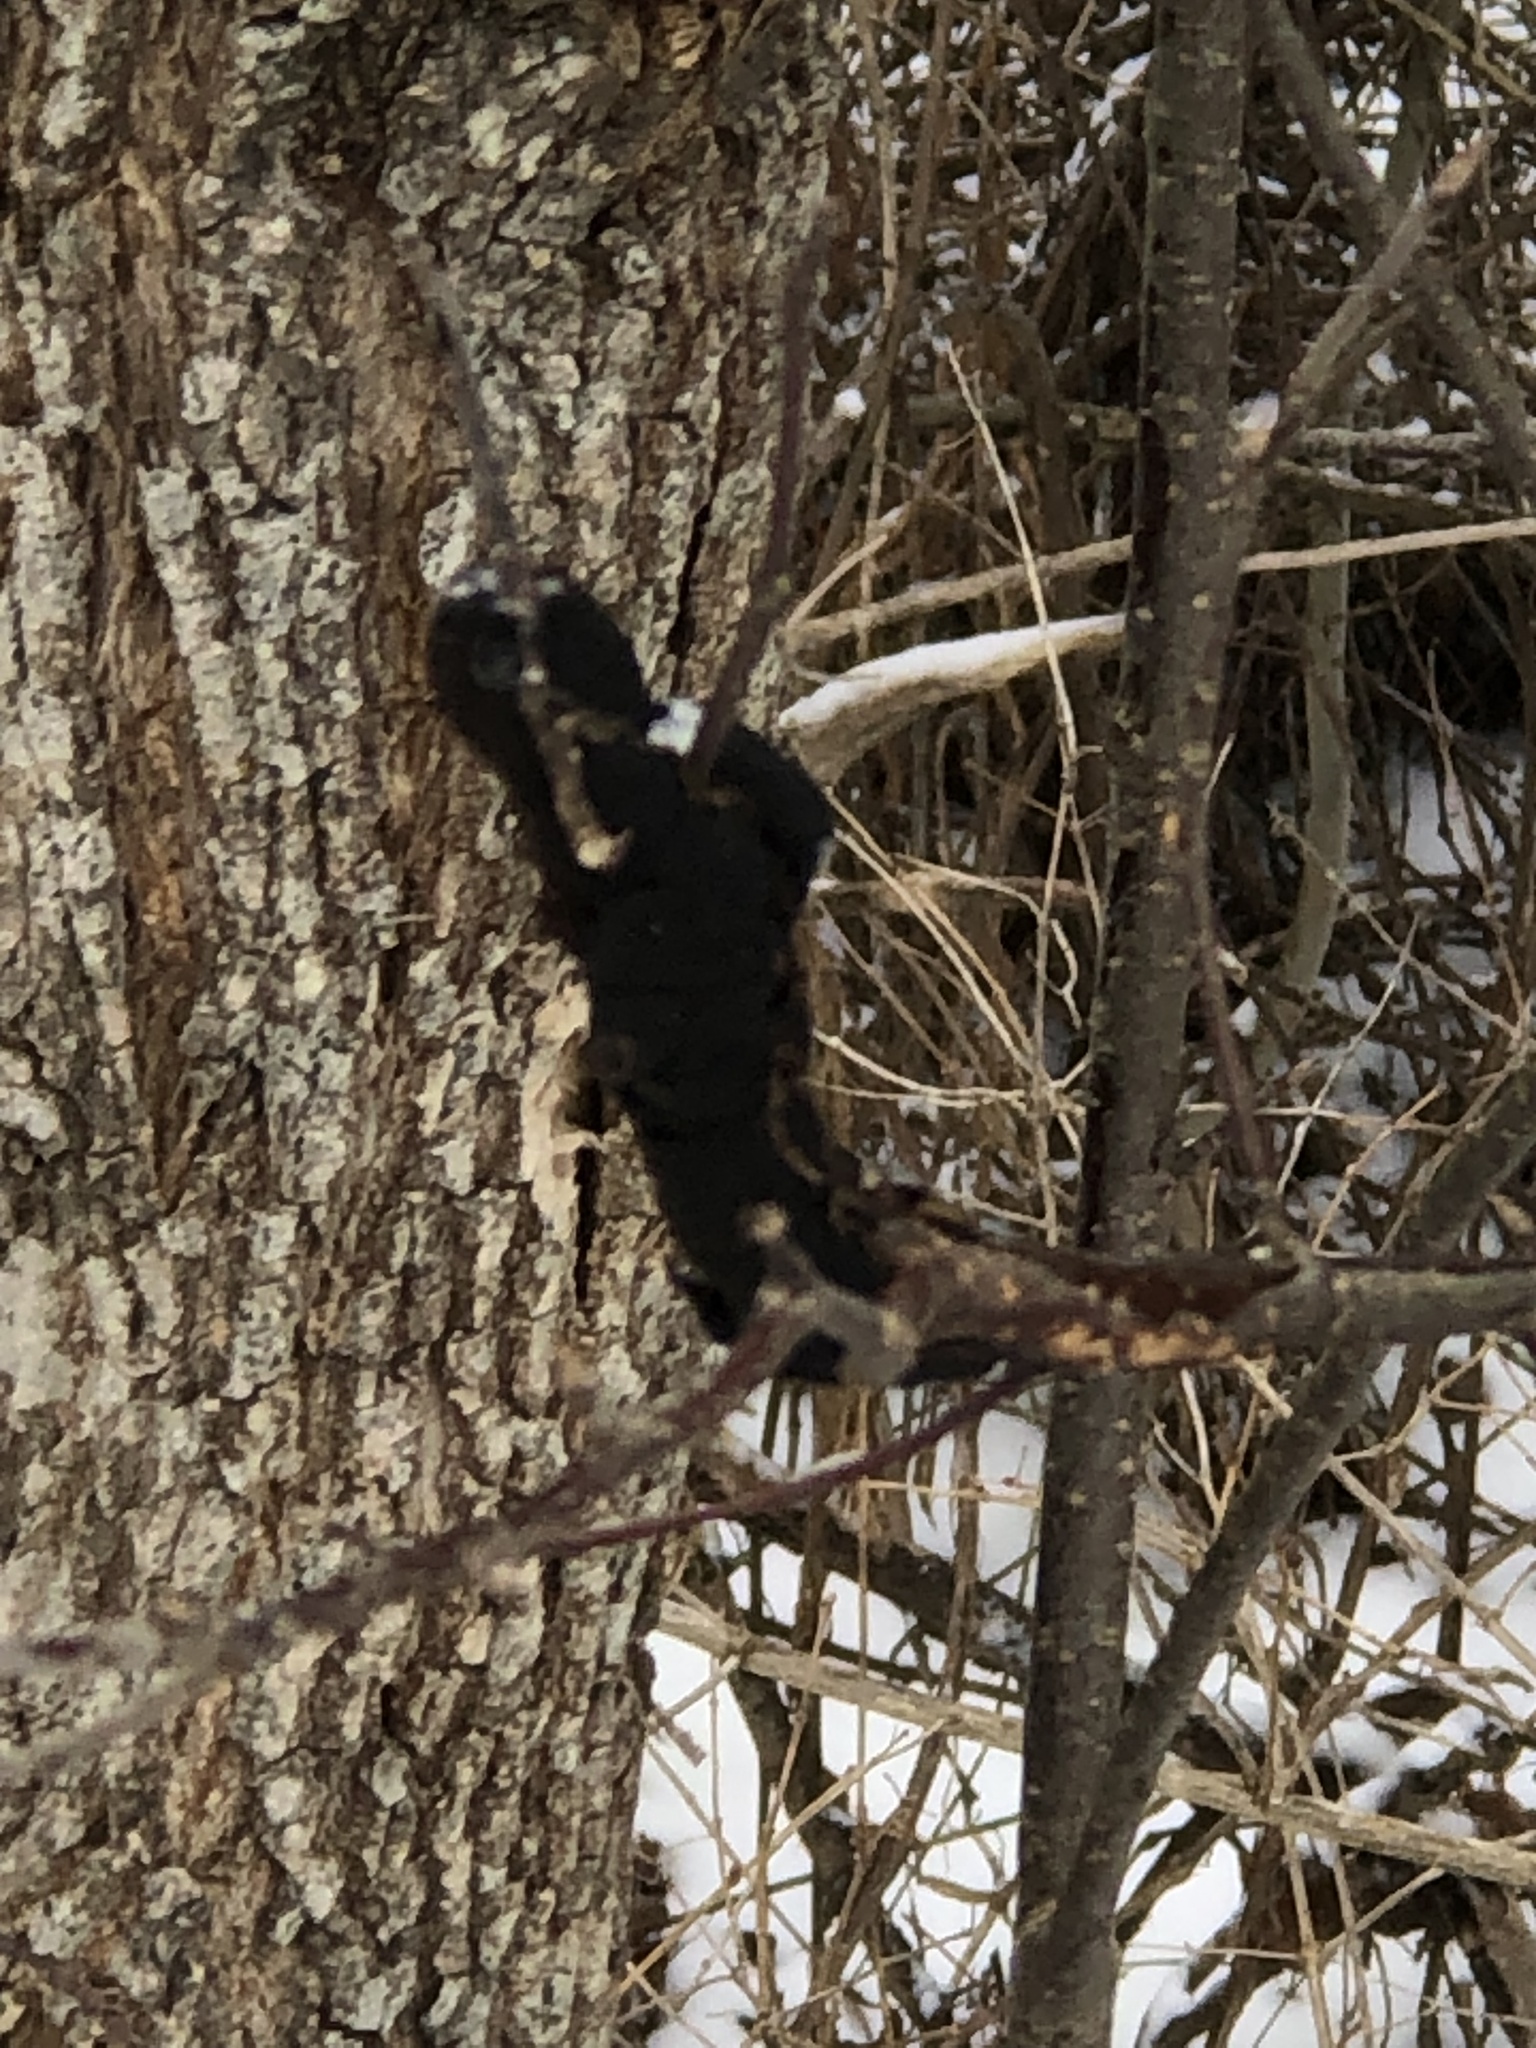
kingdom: Fungi
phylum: Ascomycota
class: Dothideomycetes
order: Venturiales
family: Venturiaceae
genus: Apiosporina
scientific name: Apiosporina morbosa
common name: Black knot
